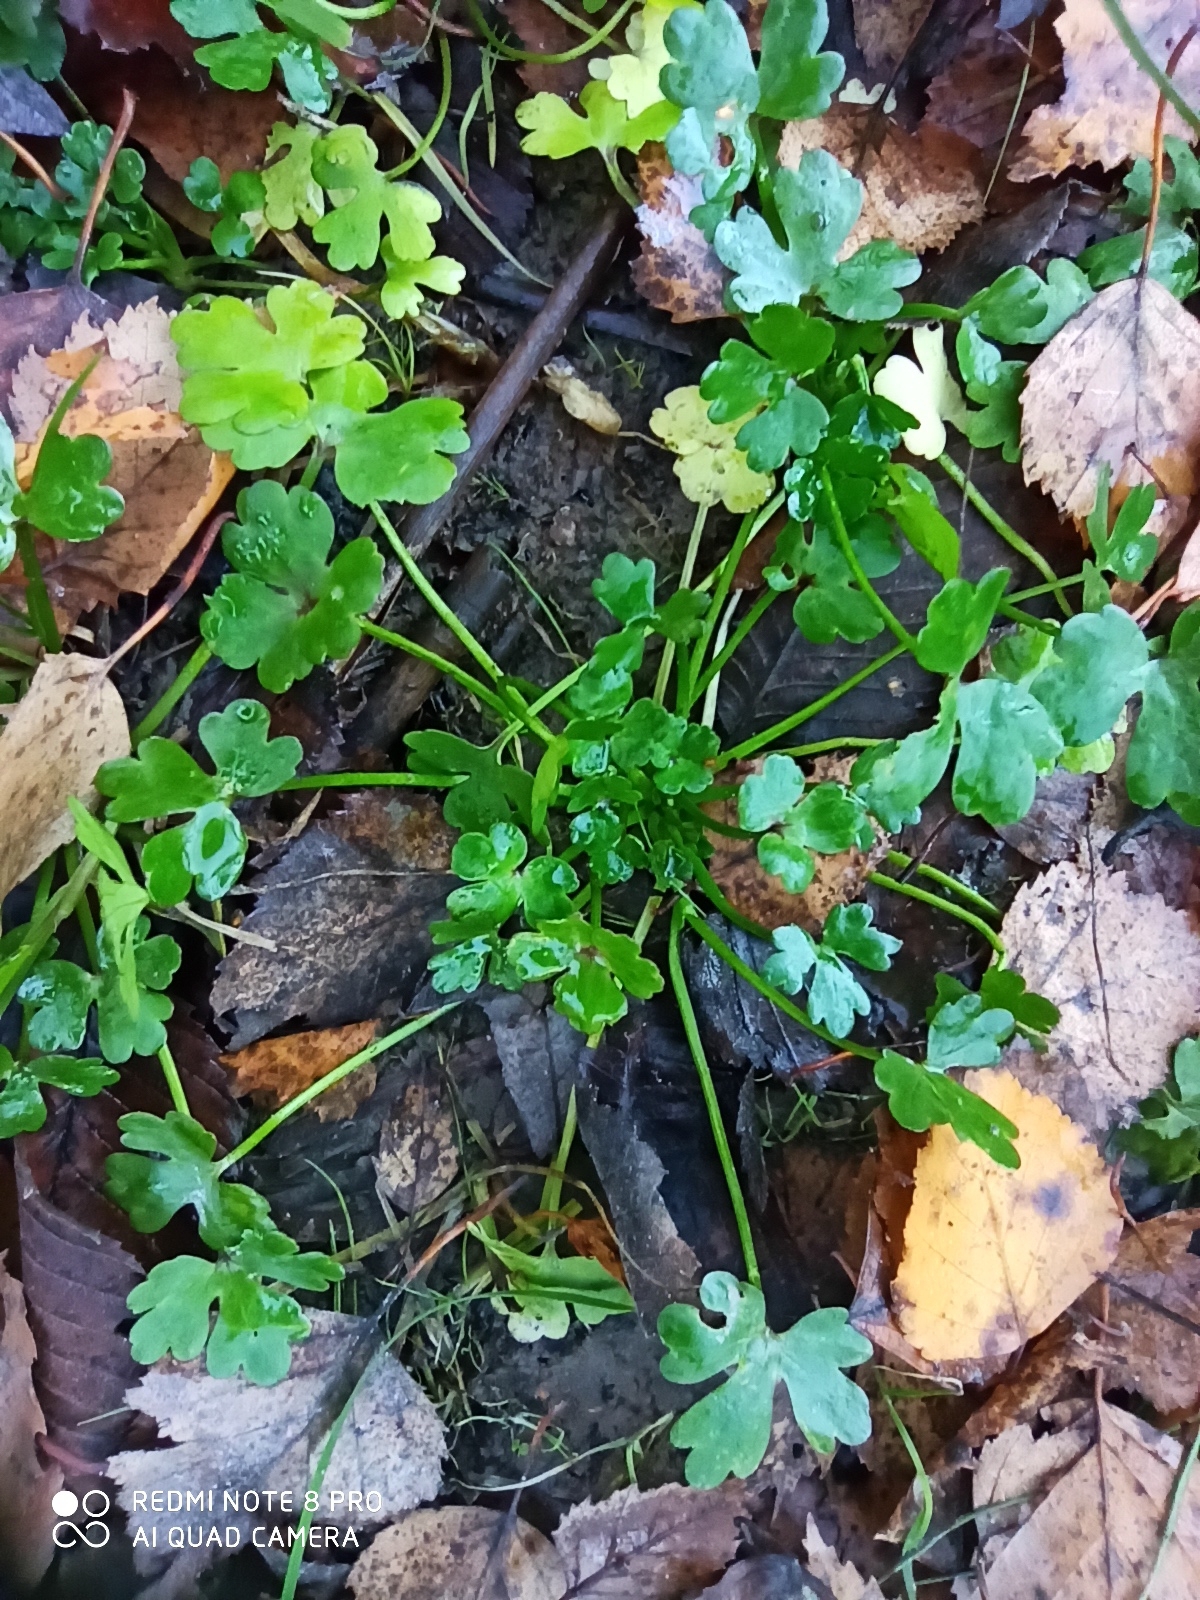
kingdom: Plantae
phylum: Tracheophyta
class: Magnoliopsida
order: Ranunculales
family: Ranunculaceae
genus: Ranunculus
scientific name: Ranunculus sceleratus
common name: Celery-leaved buttercup
